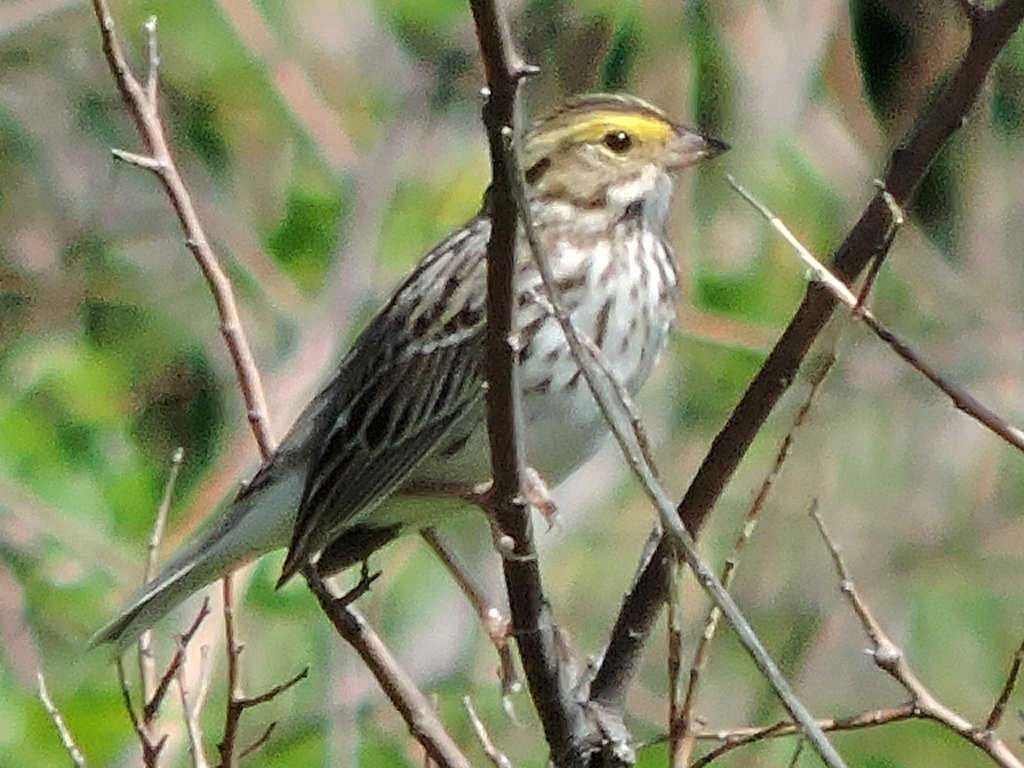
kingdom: Animalia
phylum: Chordata
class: Aves
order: Passeriformes
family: Passerellidae
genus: Passerculus
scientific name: Passerculus sandwichensis
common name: Savannah sparrow
